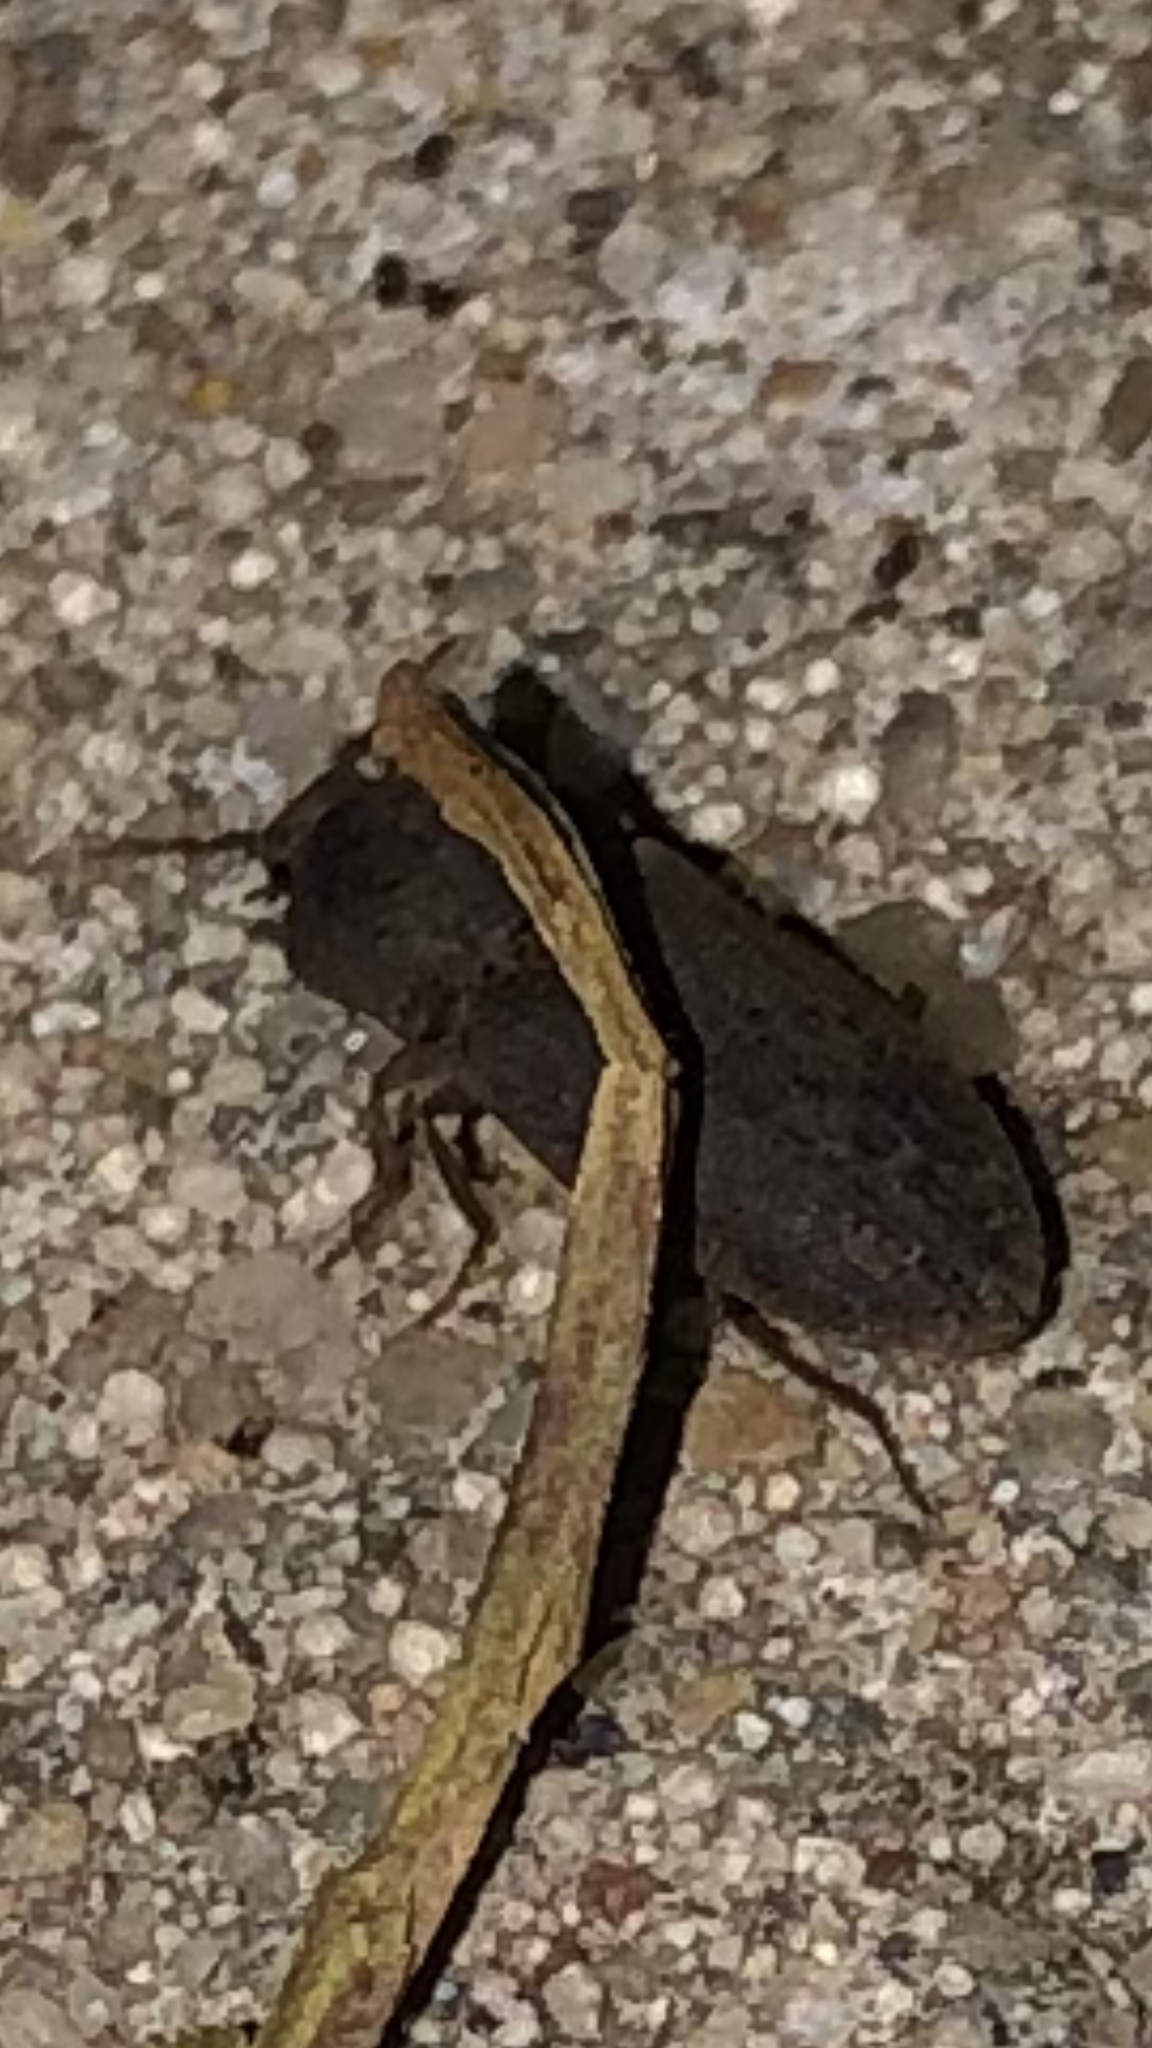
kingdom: Animalia
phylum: Arthropoda
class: Insecta
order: Coleoptera
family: Elateridae
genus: Agrypnus
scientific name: Agrypnus rectangularis
